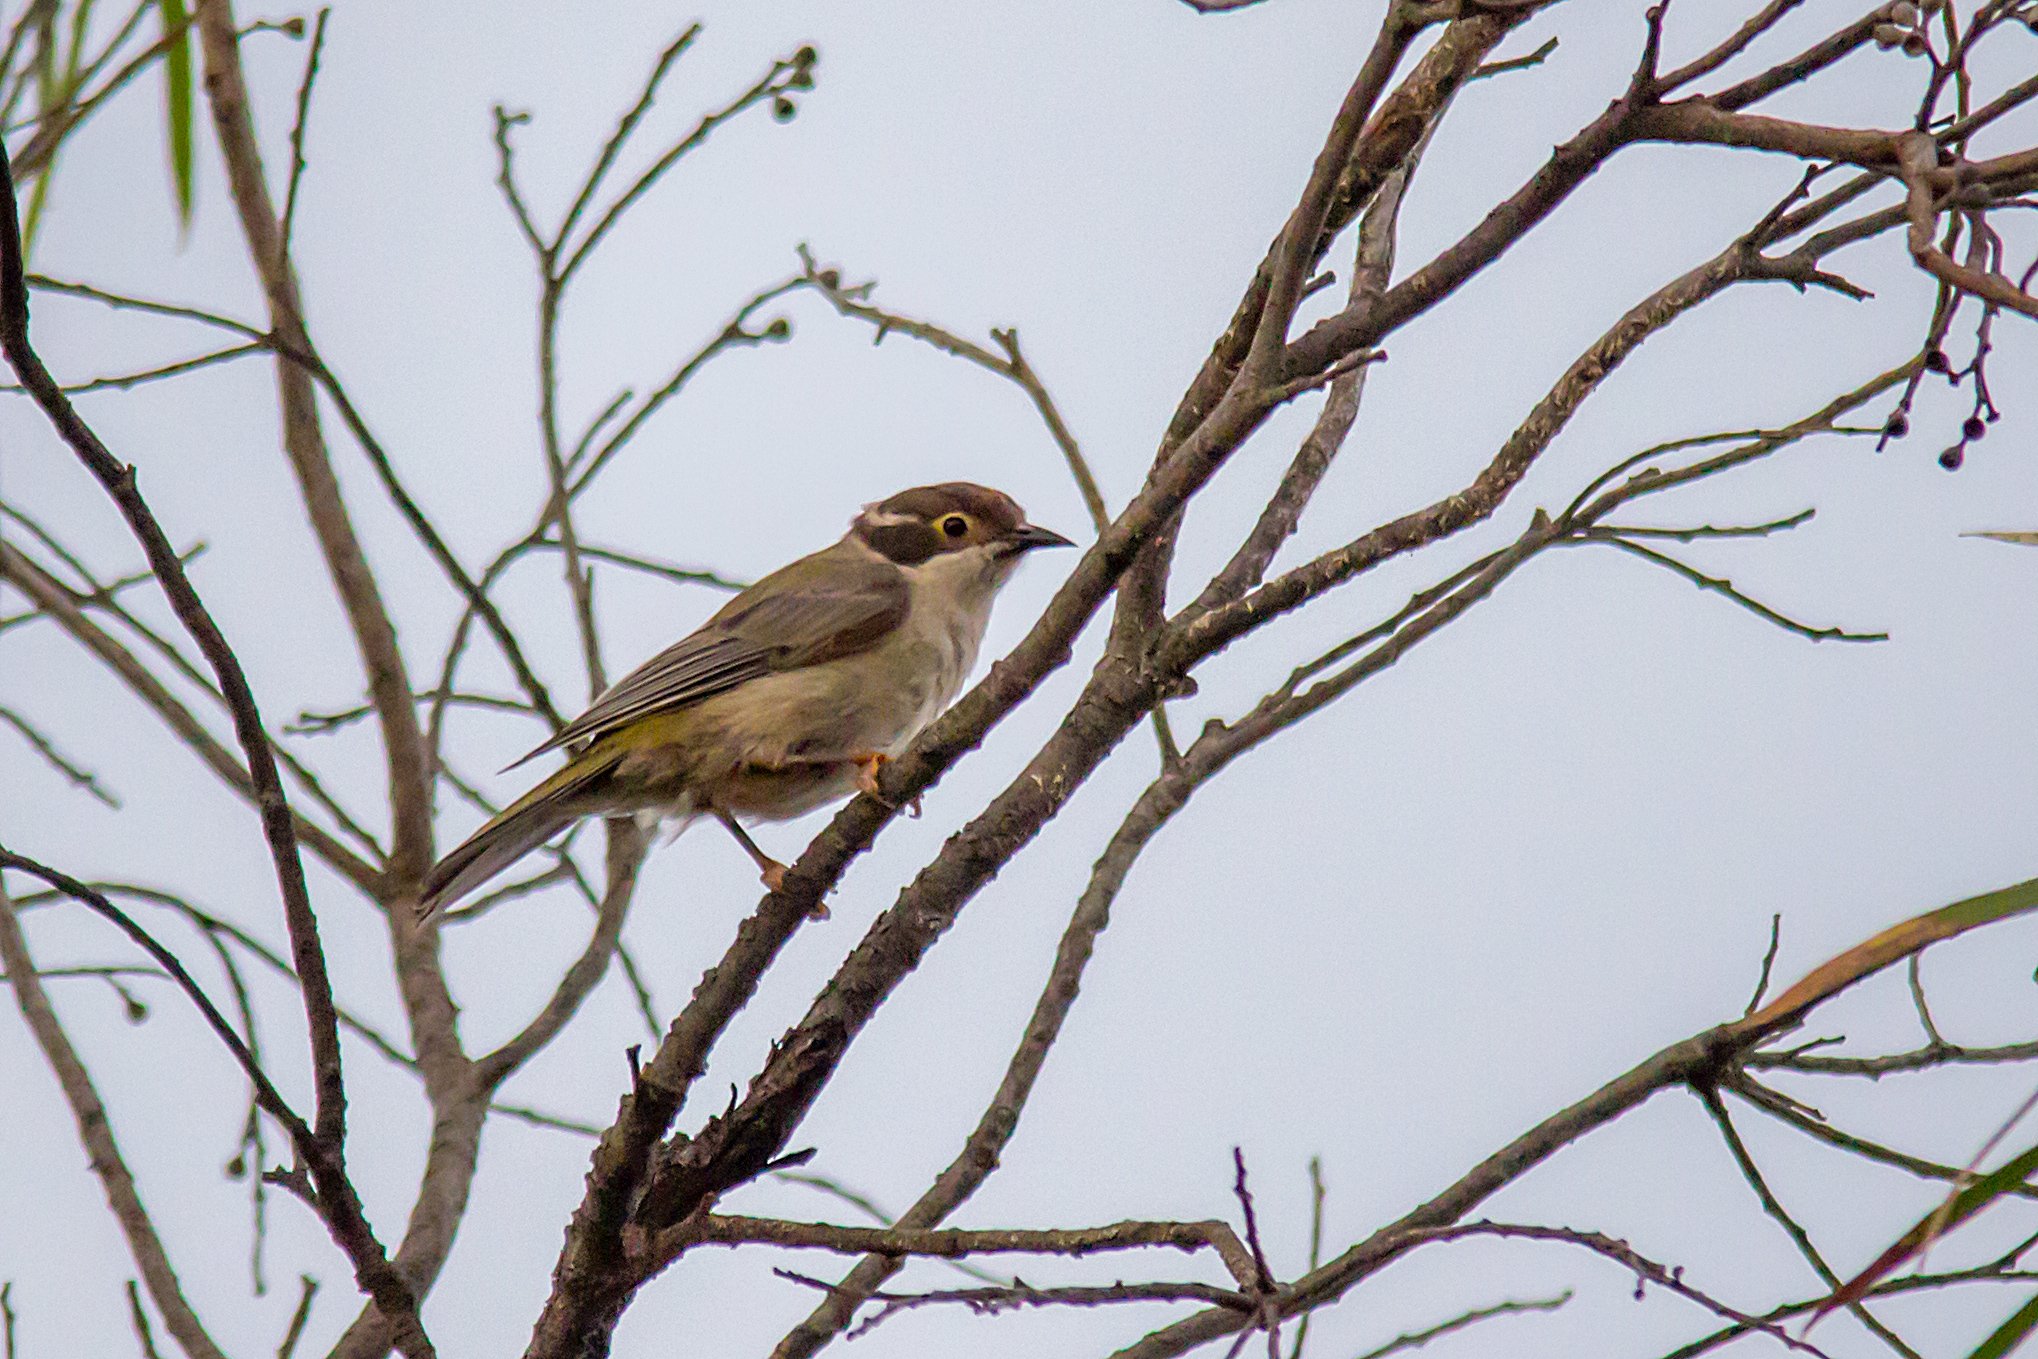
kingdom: Animalia
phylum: Chordata
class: Aves
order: Passeriformes
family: Meliphagidae
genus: Melithreptus
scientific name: Melithreptus brevirostris
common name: Brown-headed honeyeater
